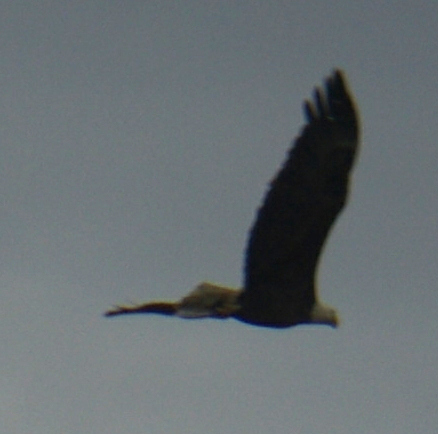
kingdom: Animalia
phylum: Chordata
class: Aves
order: Accipitriformes
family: Accipitridae
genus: Haliaeetus
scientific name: Haliaeetus leucocephalus
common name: Bald eagle
